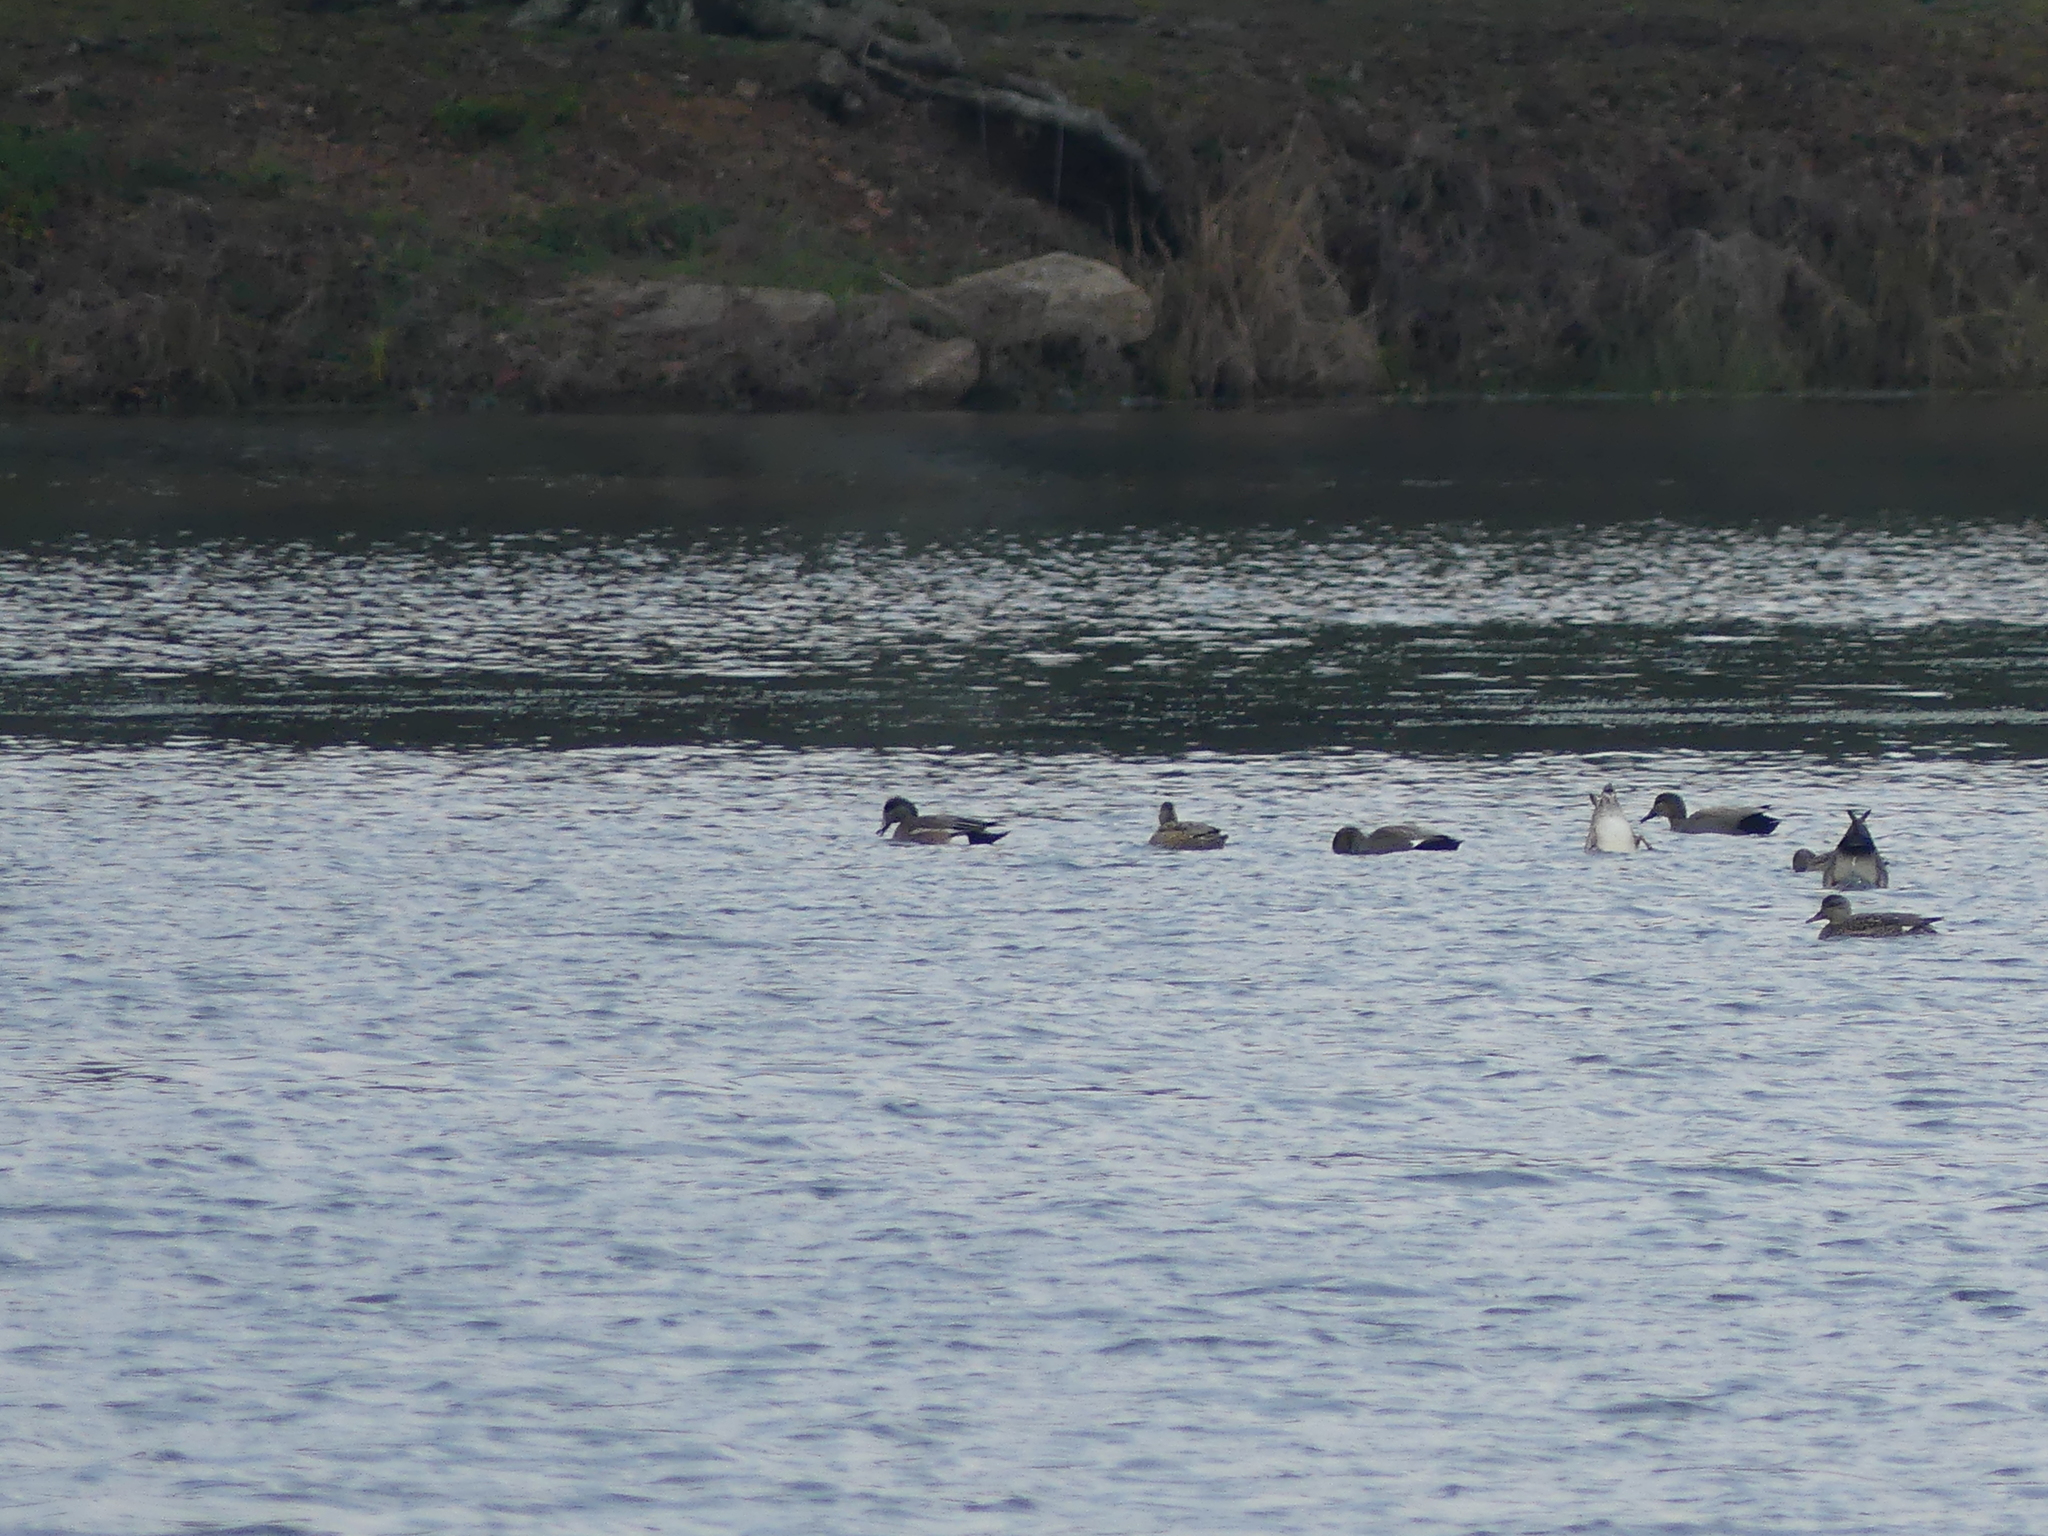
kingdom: Animalia
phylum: Chordata
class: Aves
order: Anseriformes
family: Anatidae
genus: Mareca
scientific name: Mareca americana
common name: American wigeon
